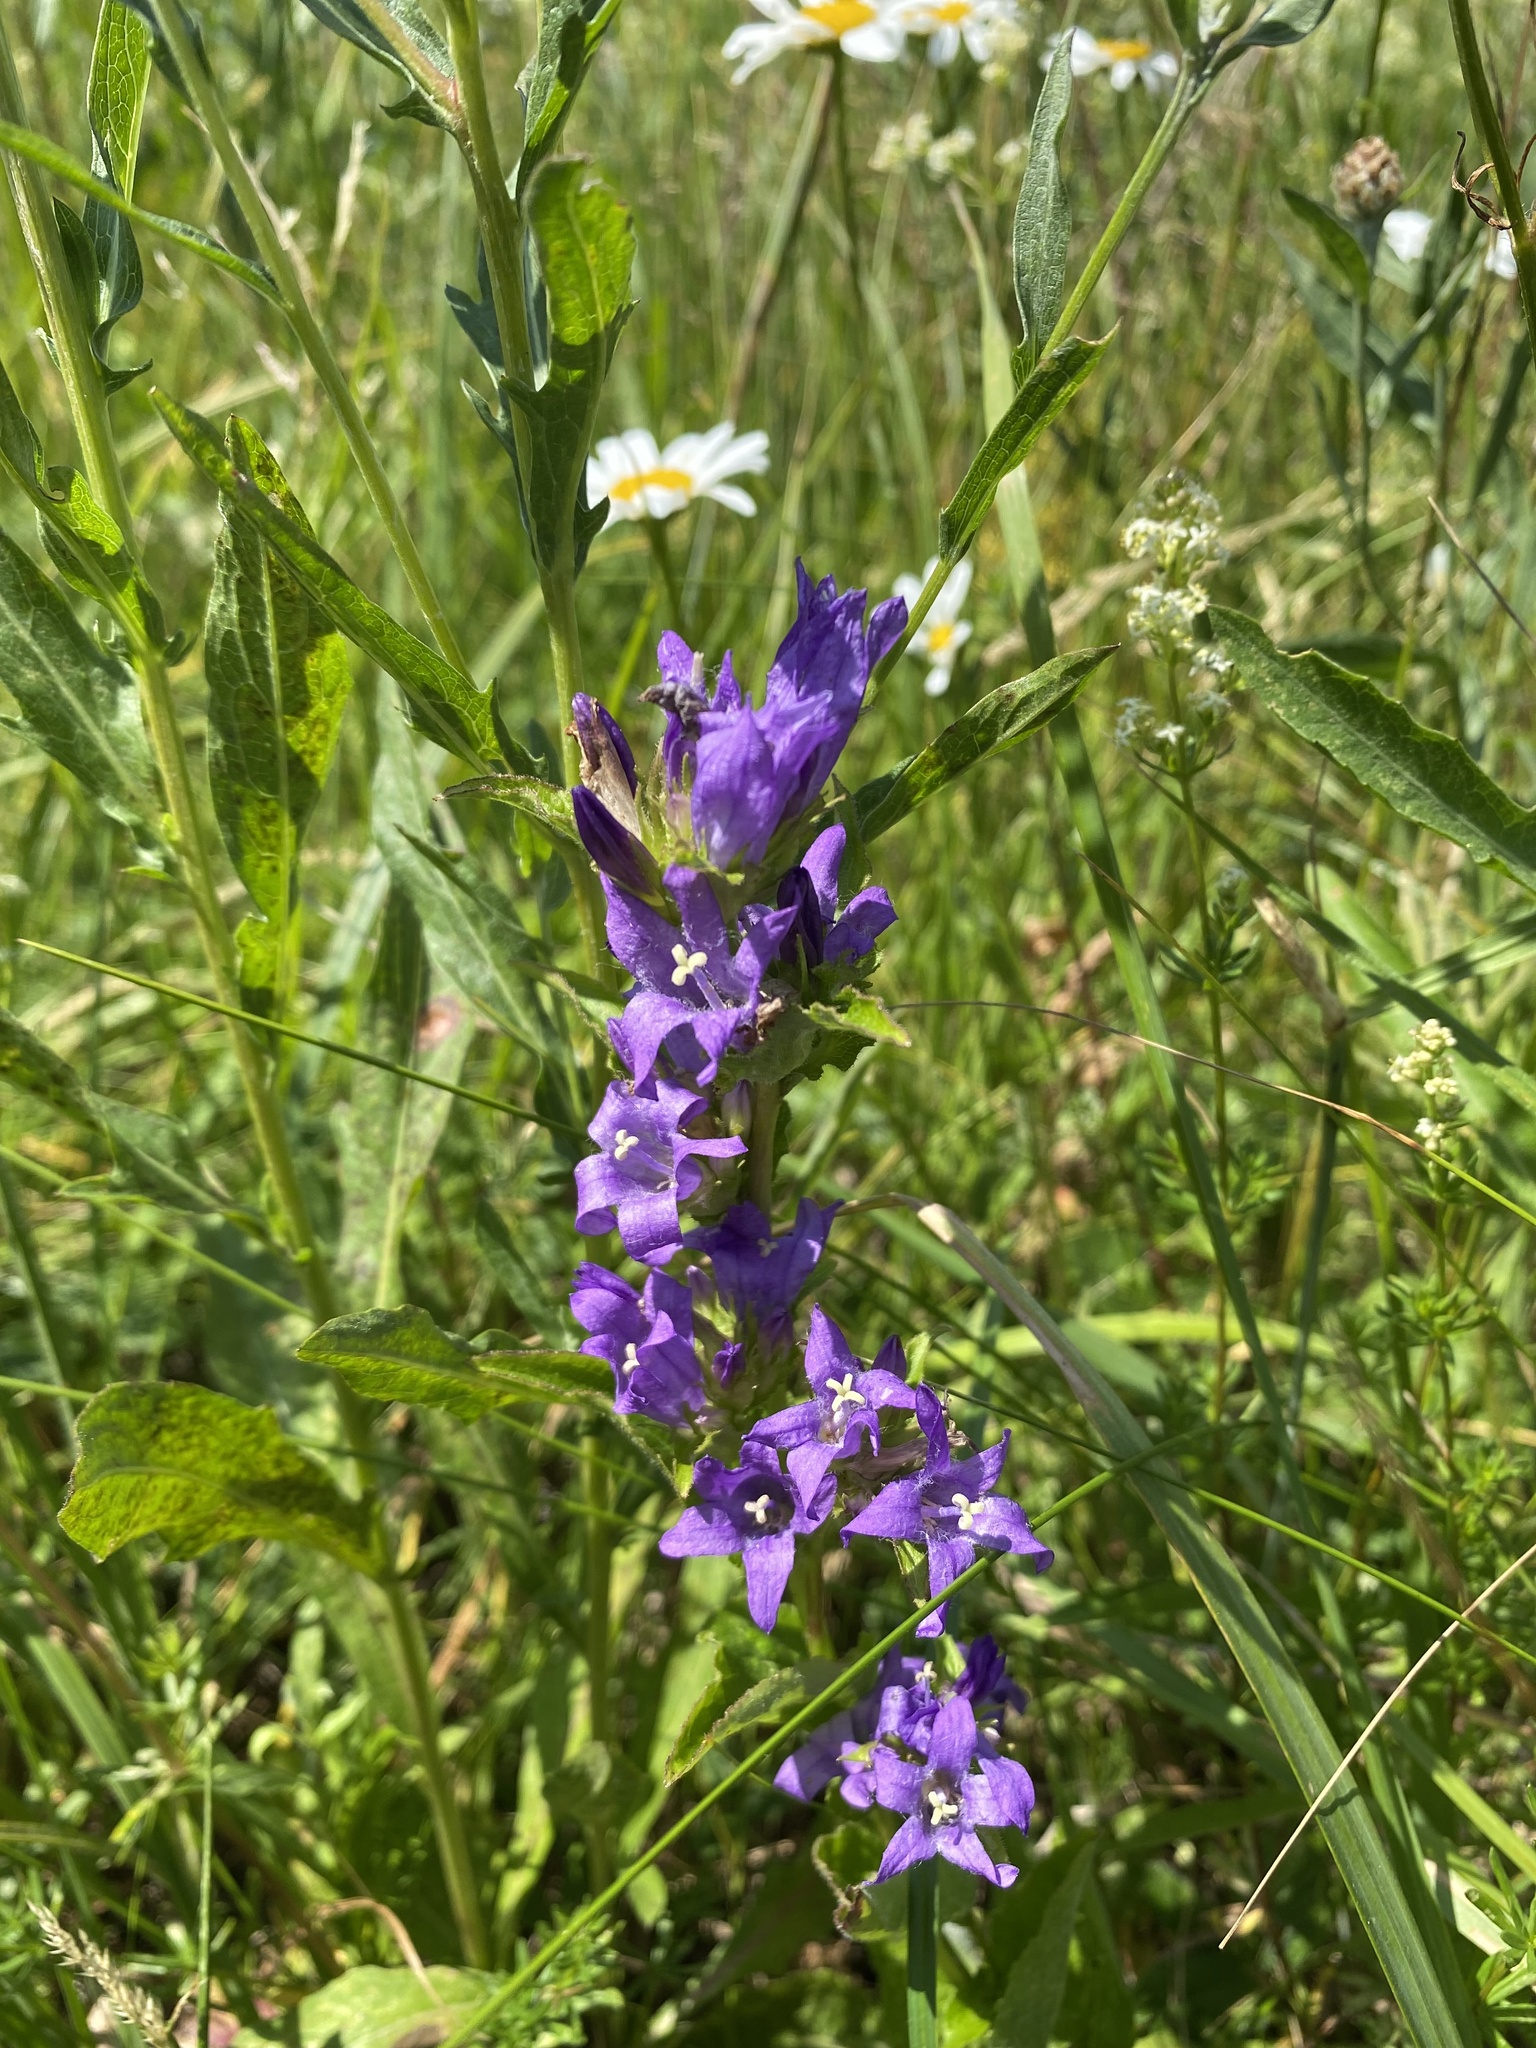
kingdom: Plantae
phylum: Tracheophyta
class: Magnoliopsida
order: Asterales
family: Campanulaceae
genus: Campanula
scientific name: Campanula glomerata
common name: Clustered bellflower
